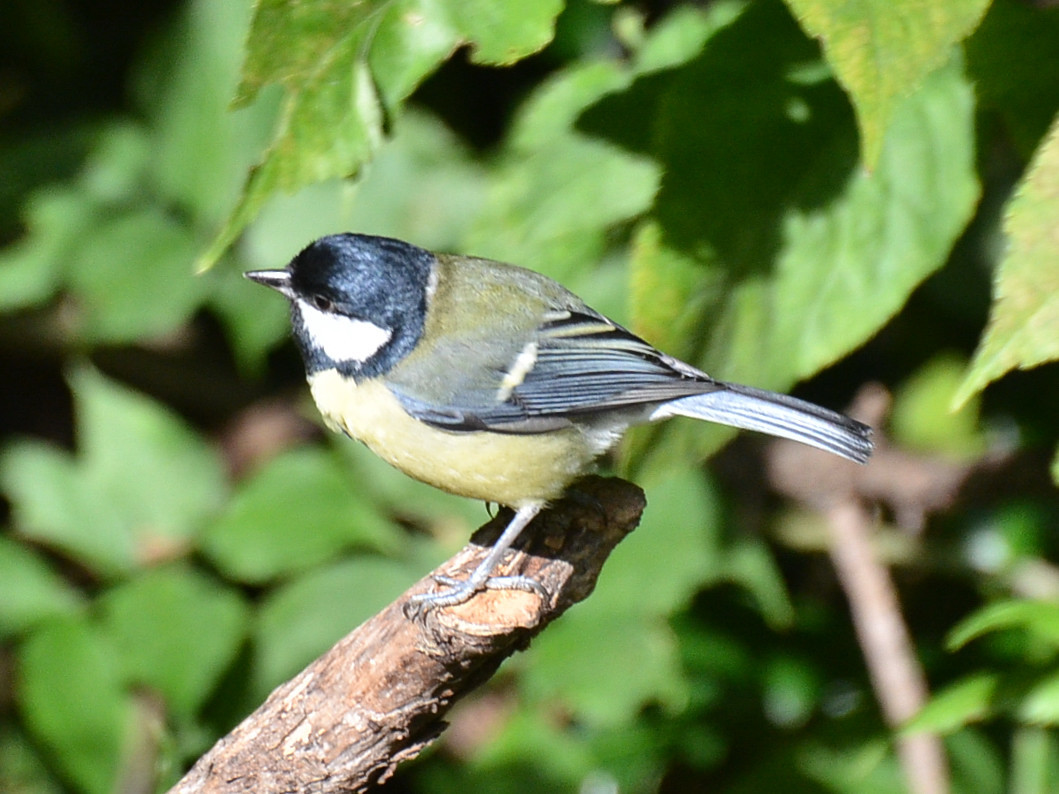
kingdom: Animalia
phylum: Chordata
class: Aves
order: Passeriformes
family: Paridae
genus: Parus
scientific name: Parus major
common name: Great tit
